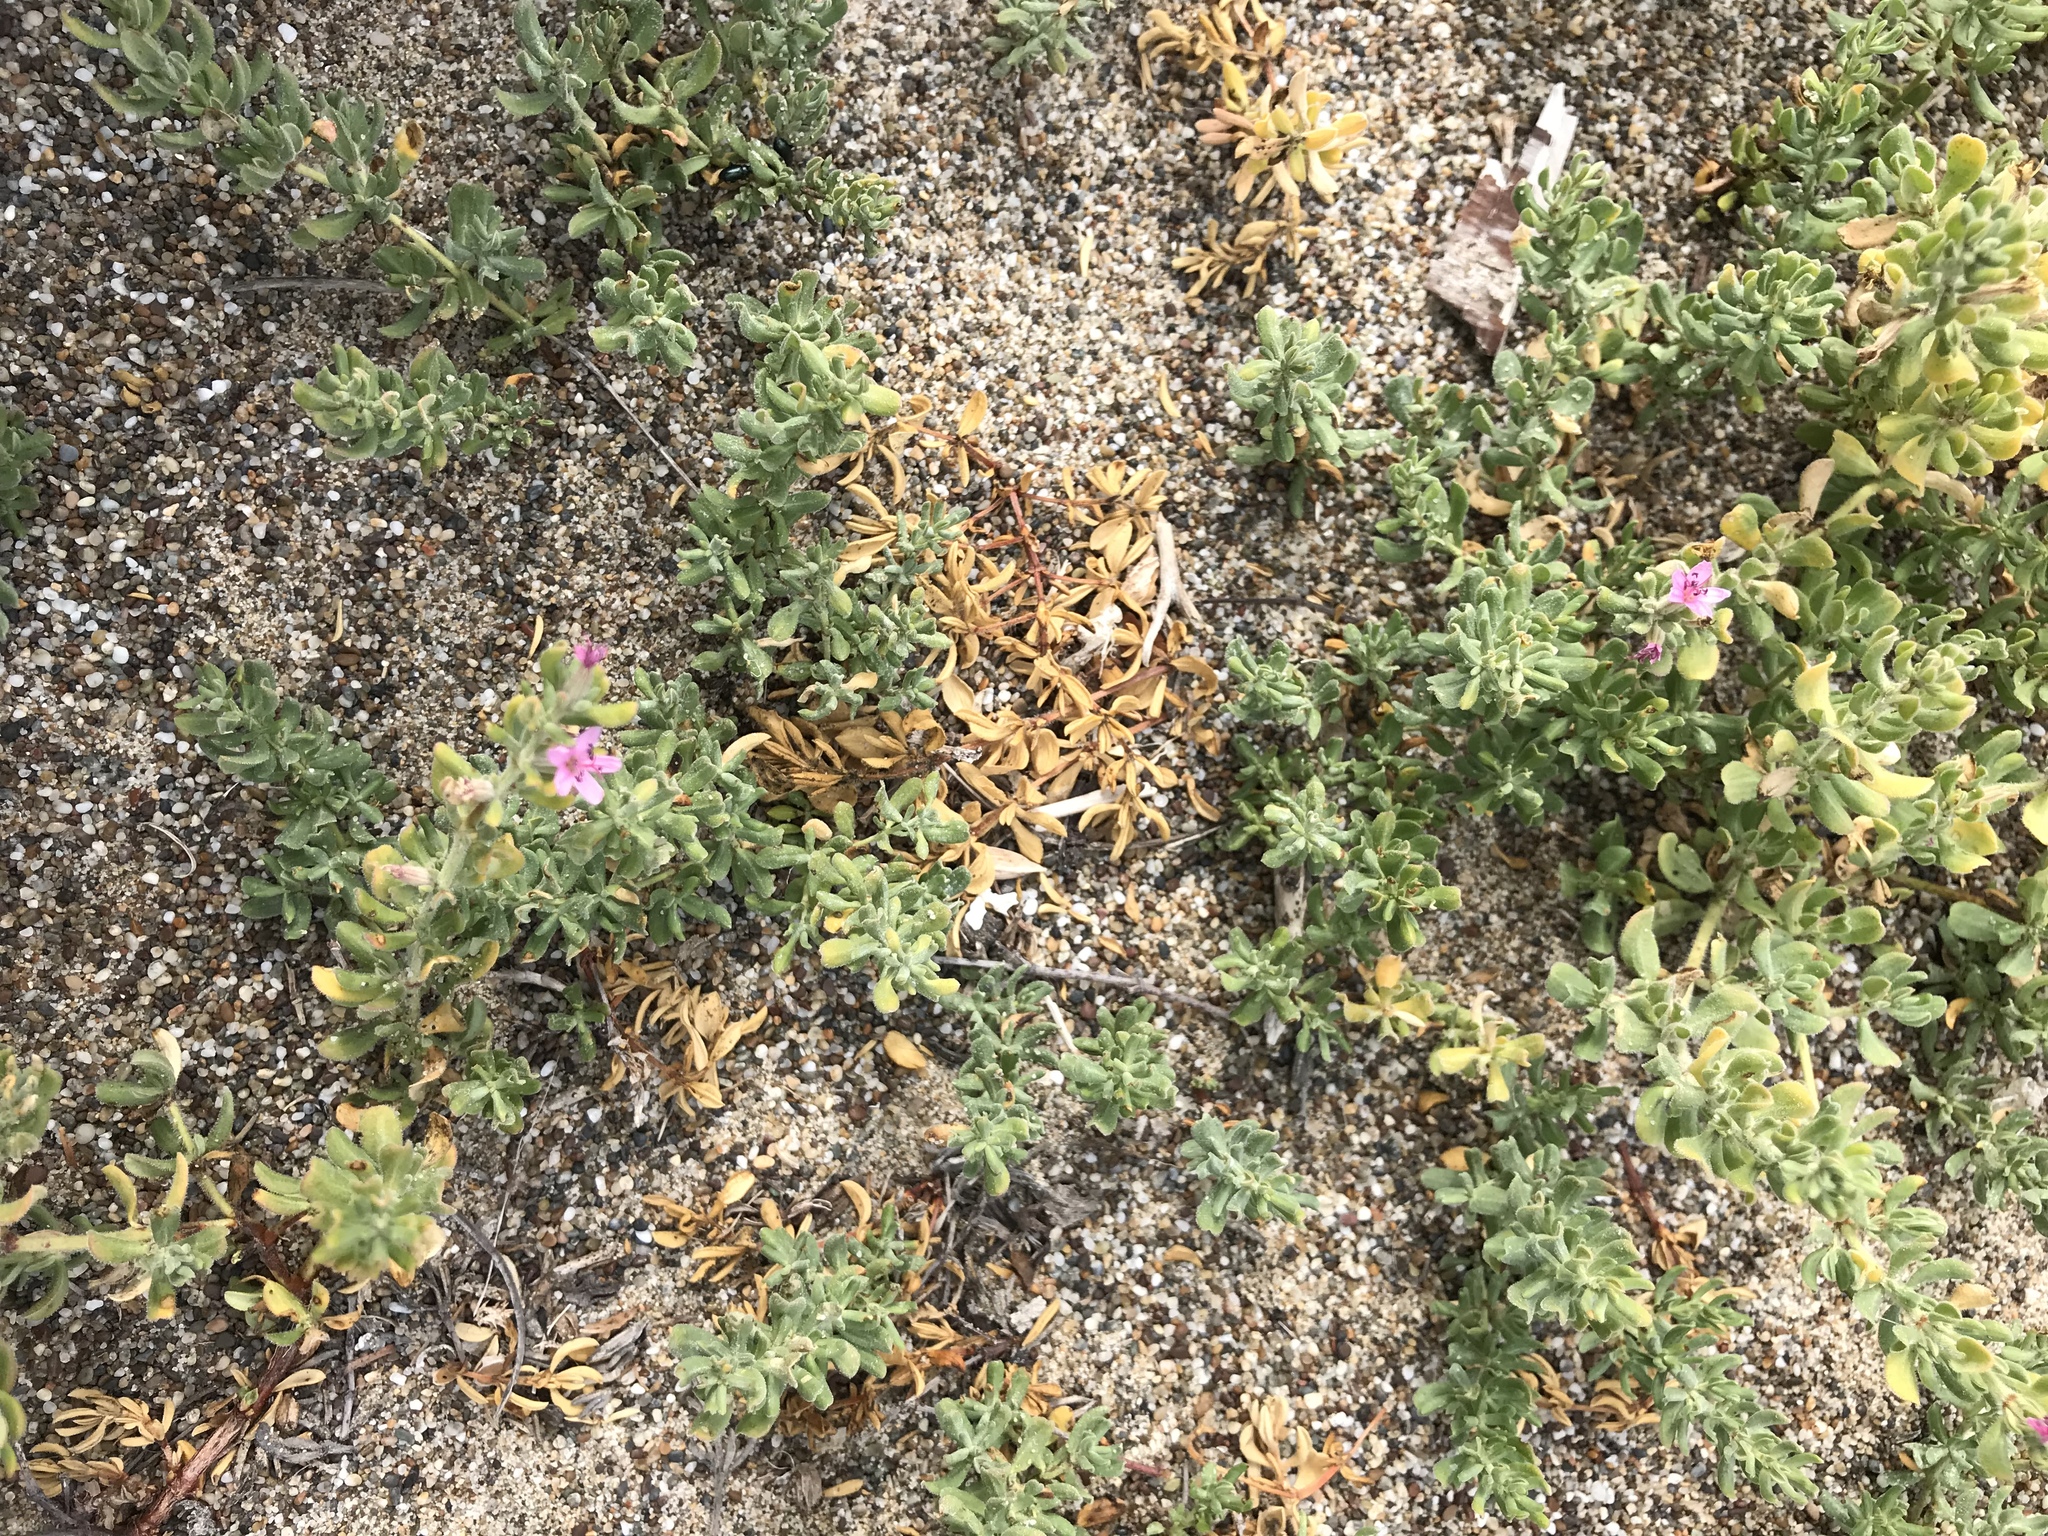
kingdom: Plantae
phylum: Tracheophyta
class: Magnoliopsida
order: Caryophyllales
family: Frankeniaceae
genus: Frankenia
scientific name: Frankenia salina
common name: Alkali seaheath
